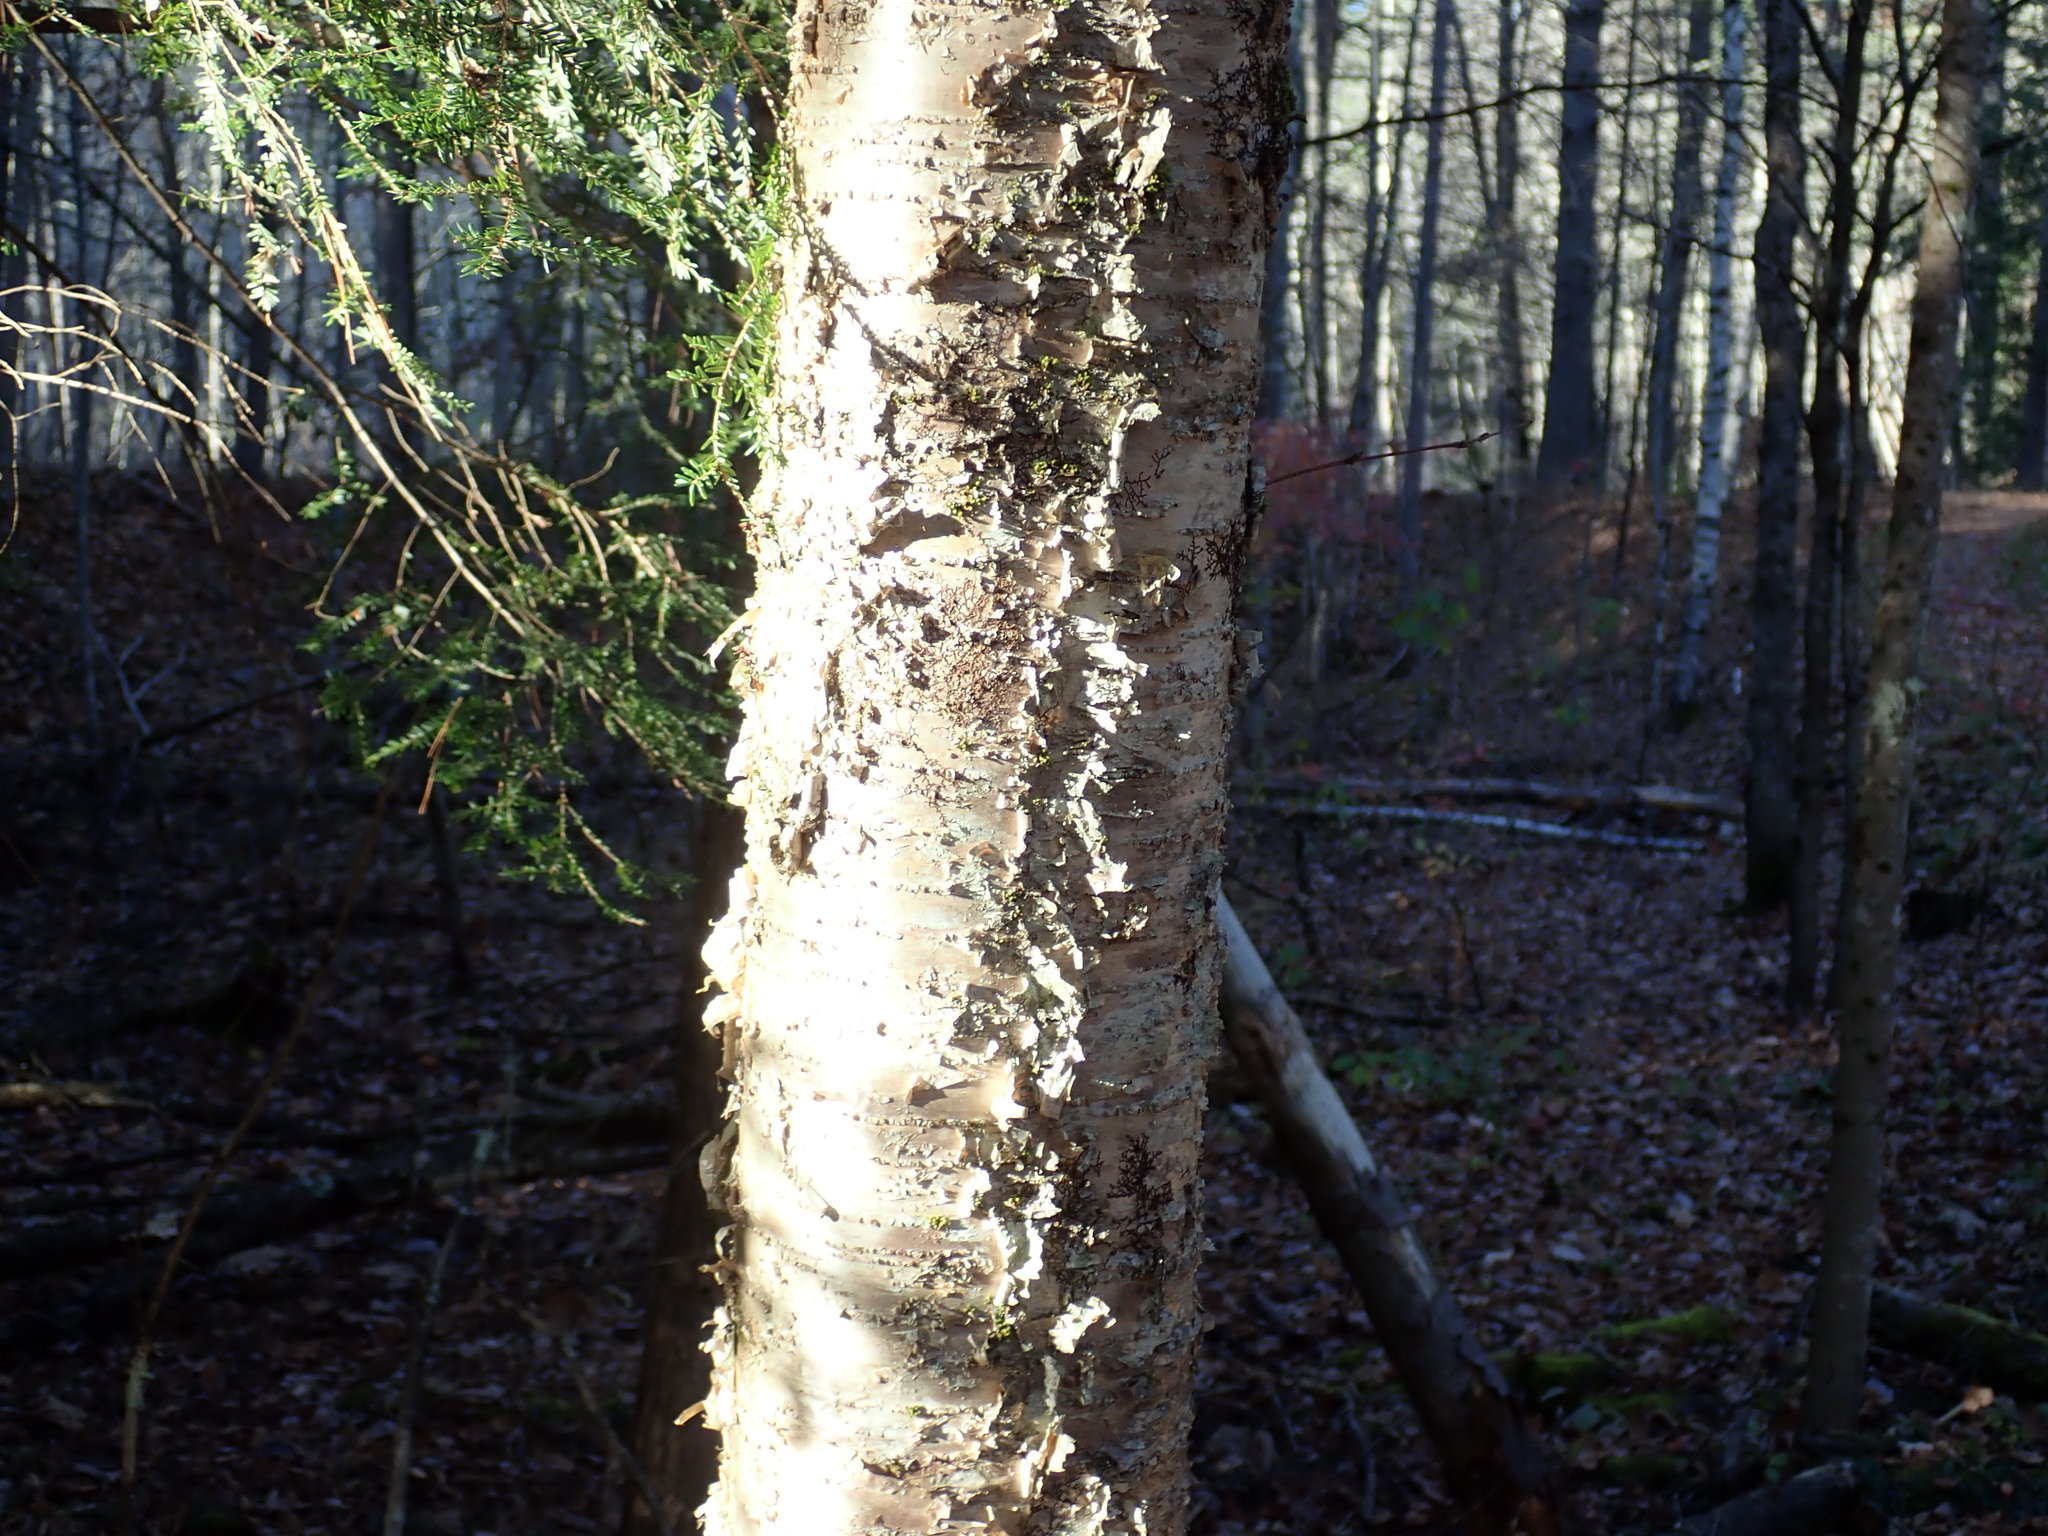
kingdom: Plantae
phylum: Tracheophyta
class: Magnoliopsida
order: Fagales
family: Betulaceae
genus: Betula
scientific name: Betula alleghaniensis
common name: Yellow birch
